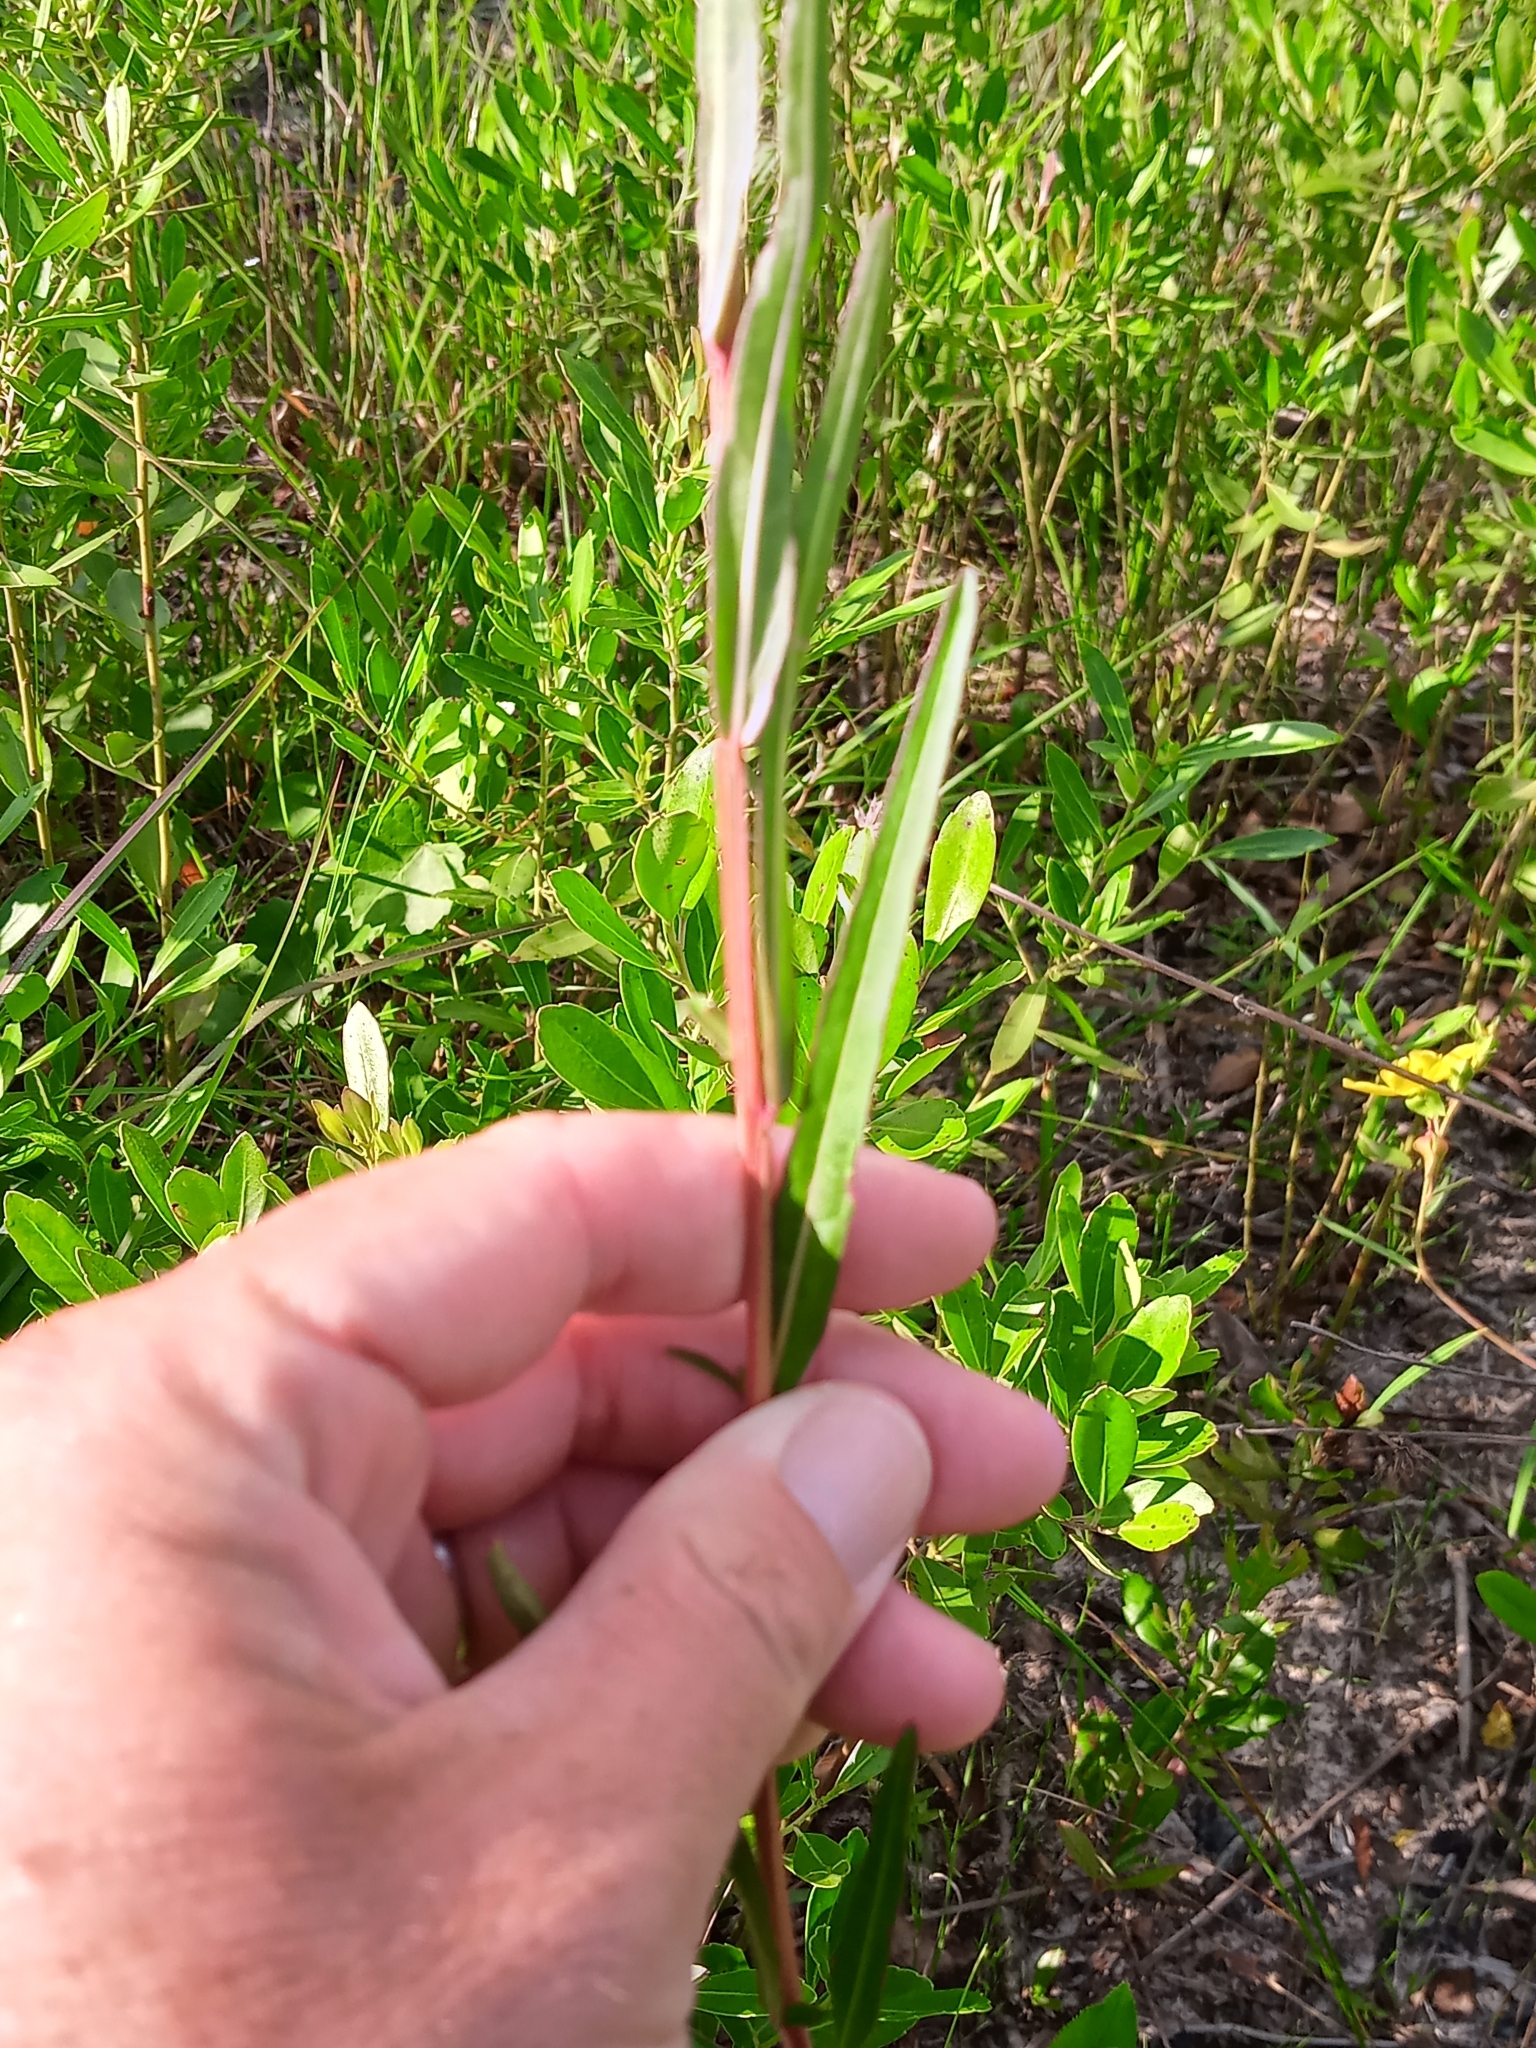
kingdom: Plantae
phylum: Tracheophyta
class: Magnoliopsida
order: Myrtales
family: Onagraceae
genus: Ludwigia
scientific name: Ludwigia virgata
